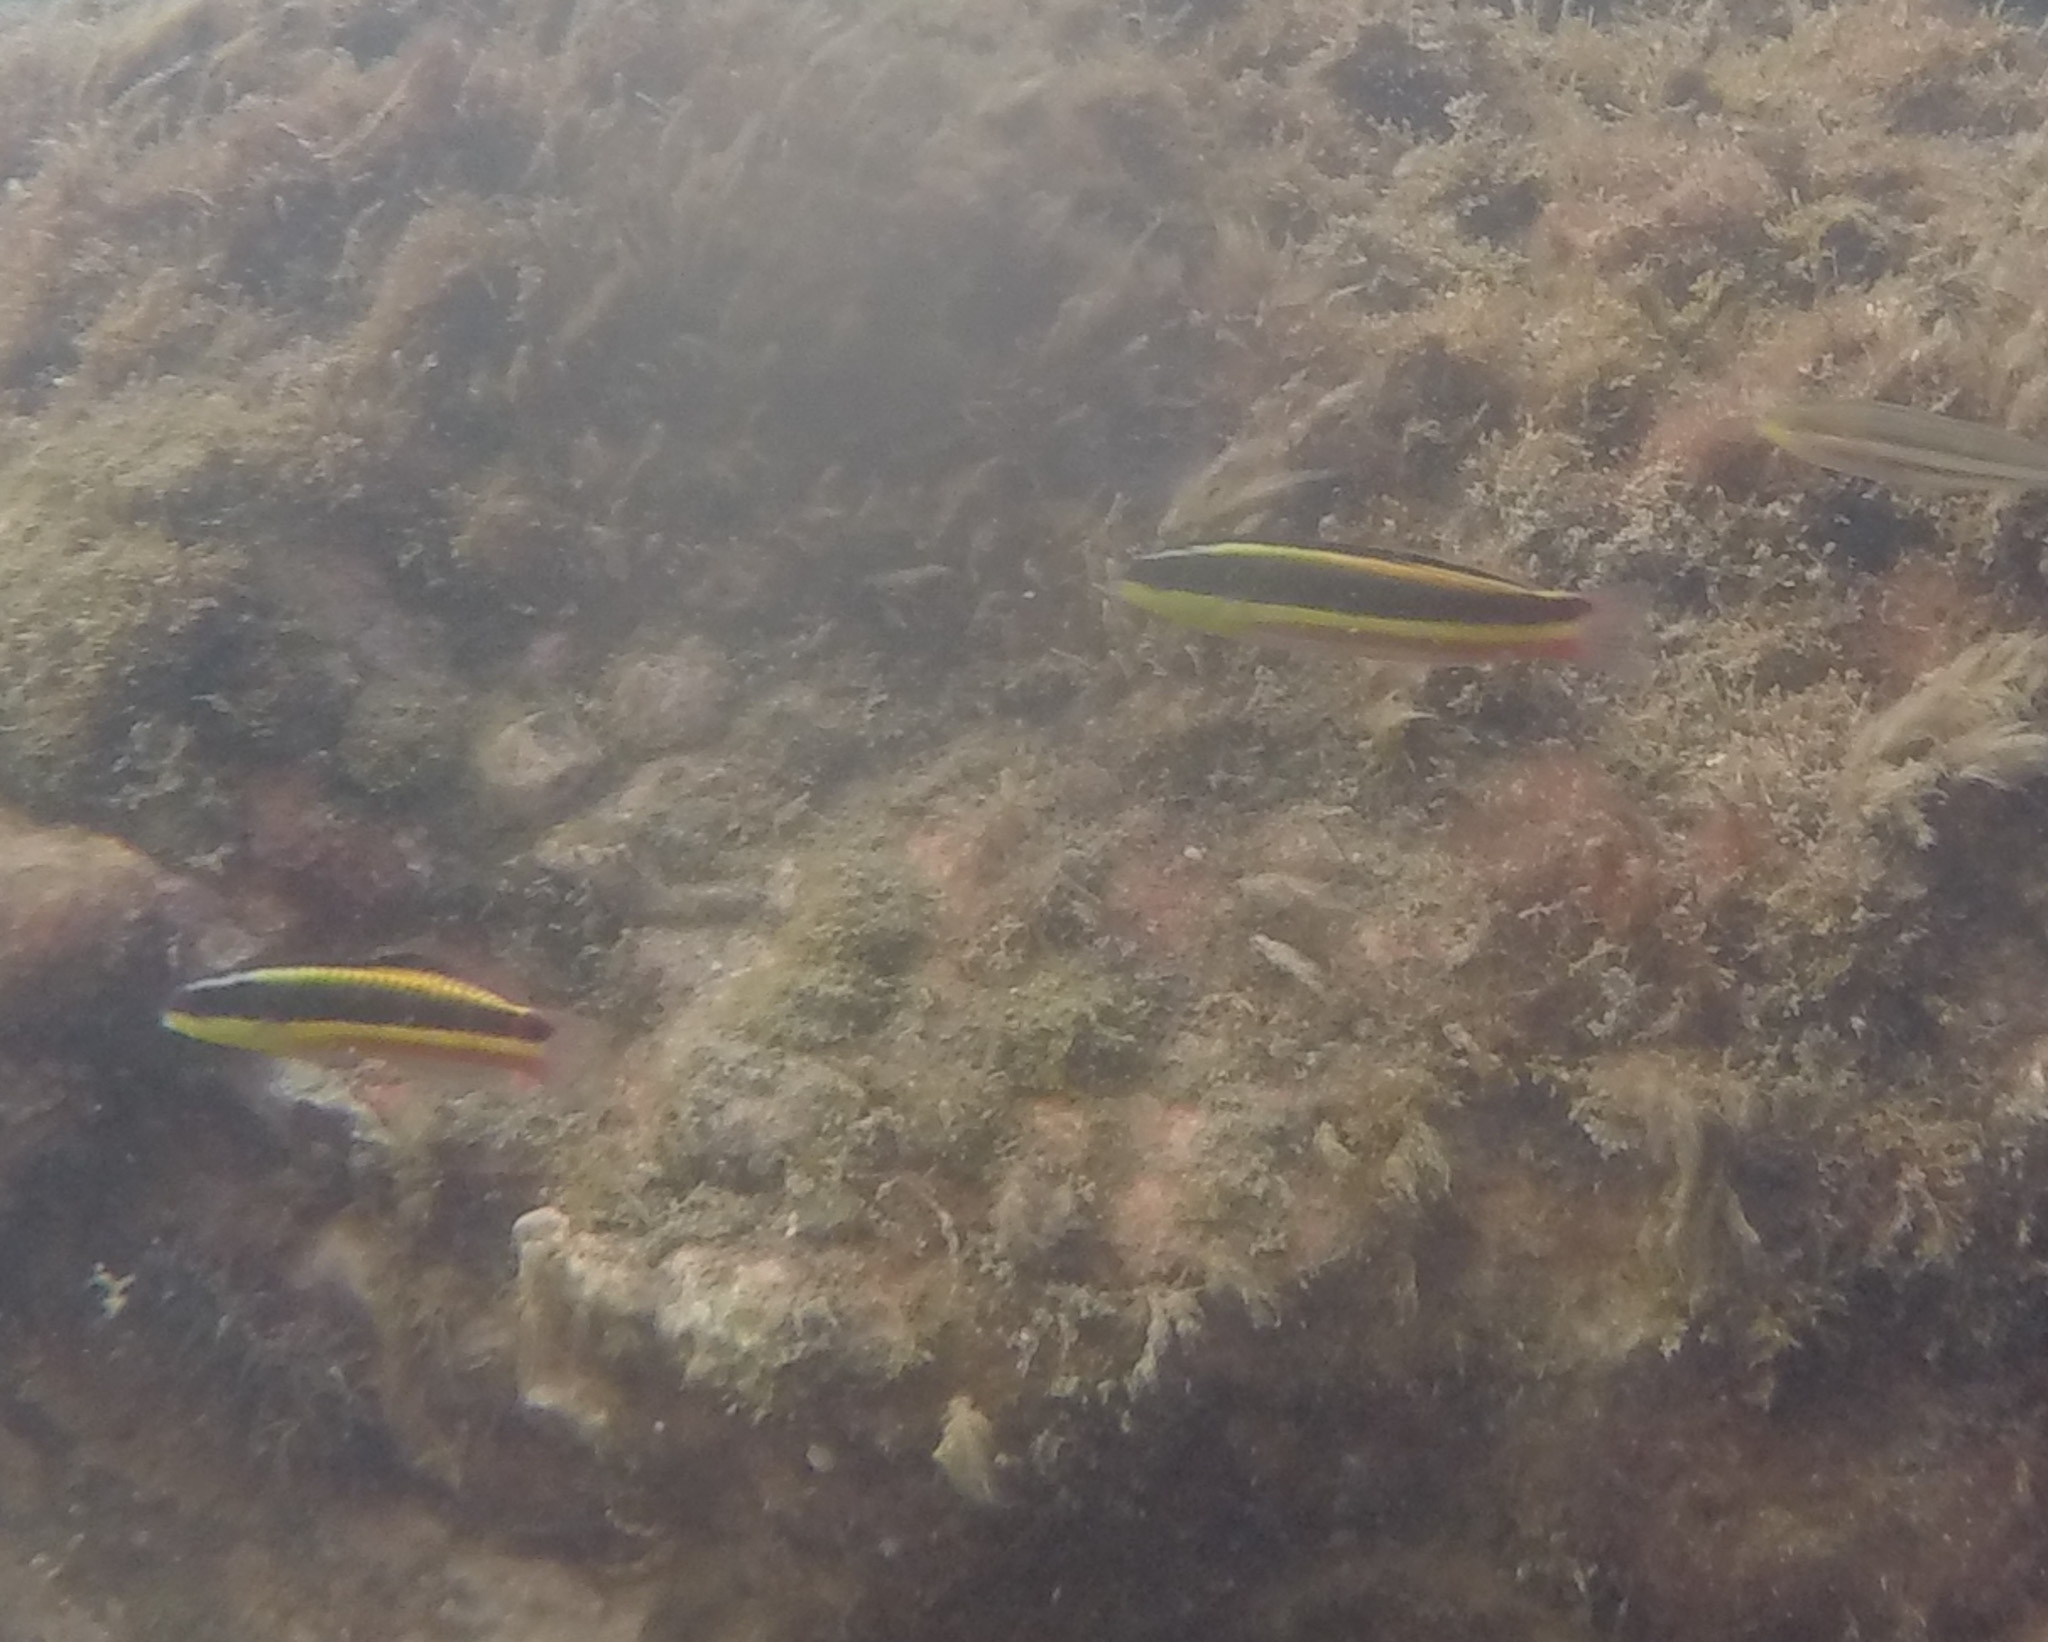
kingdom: Animalia
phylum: Chordata
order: Perciformes
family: Labridae
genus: Thalassoma
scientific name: Thalassoma lucasanum
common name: Cortez rainbow wrasse
